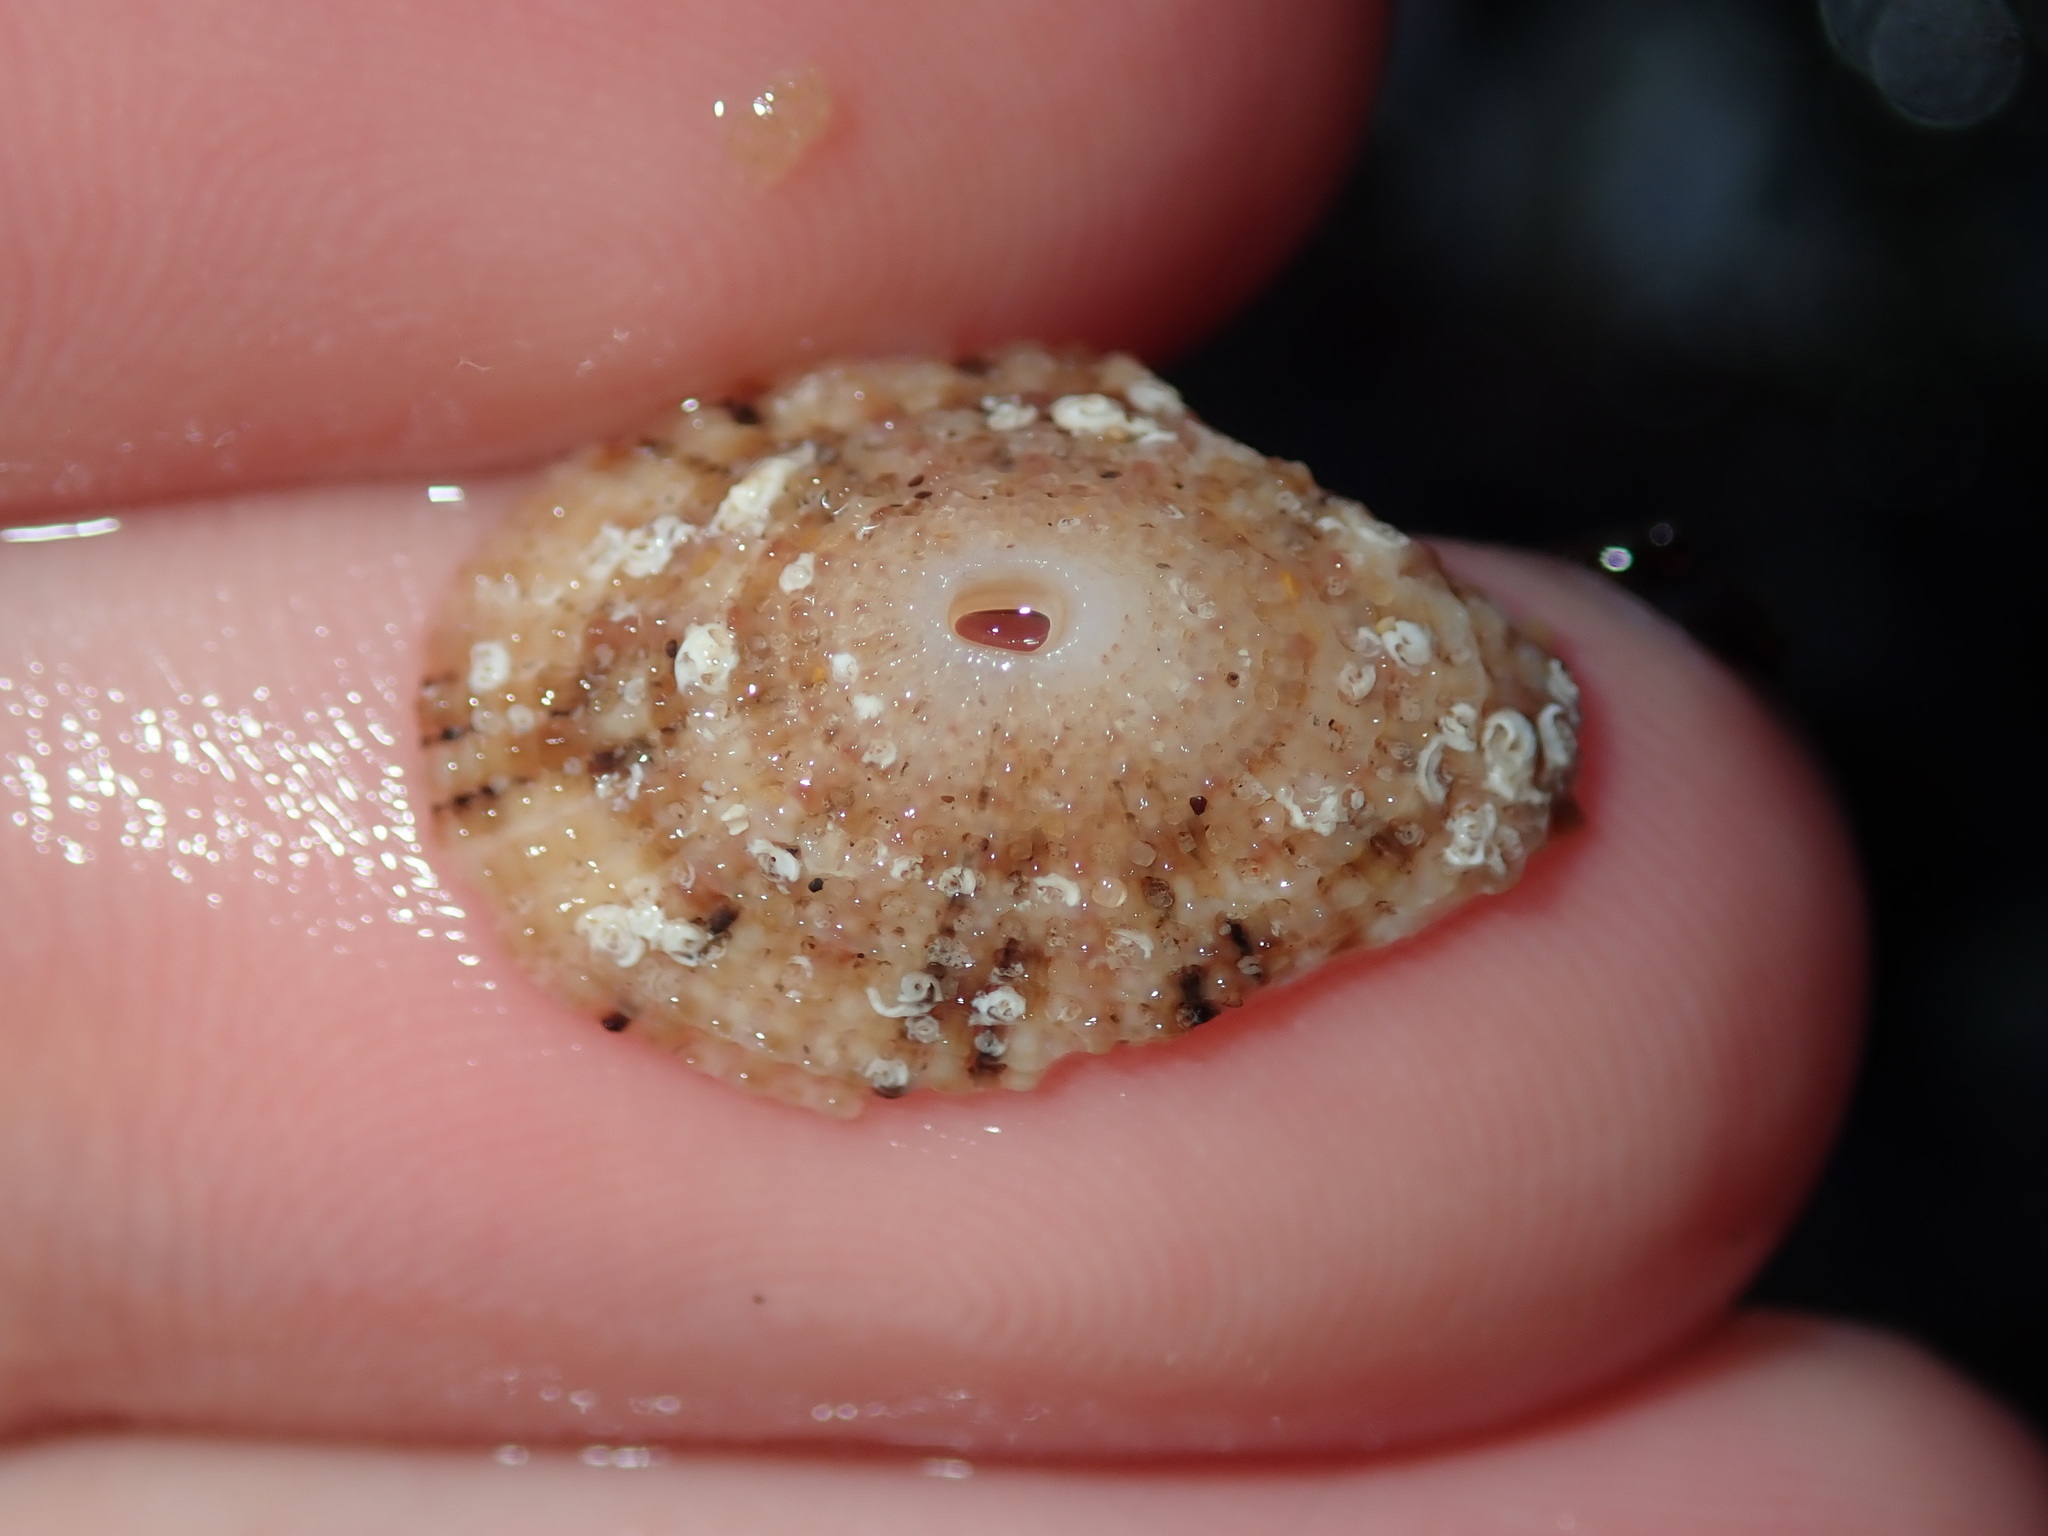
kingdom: Animalia
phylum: Mollusca
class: Gastropoda
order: Lepetellida
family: Fissurellidae
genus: Diodora
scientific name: Diodora lineata
